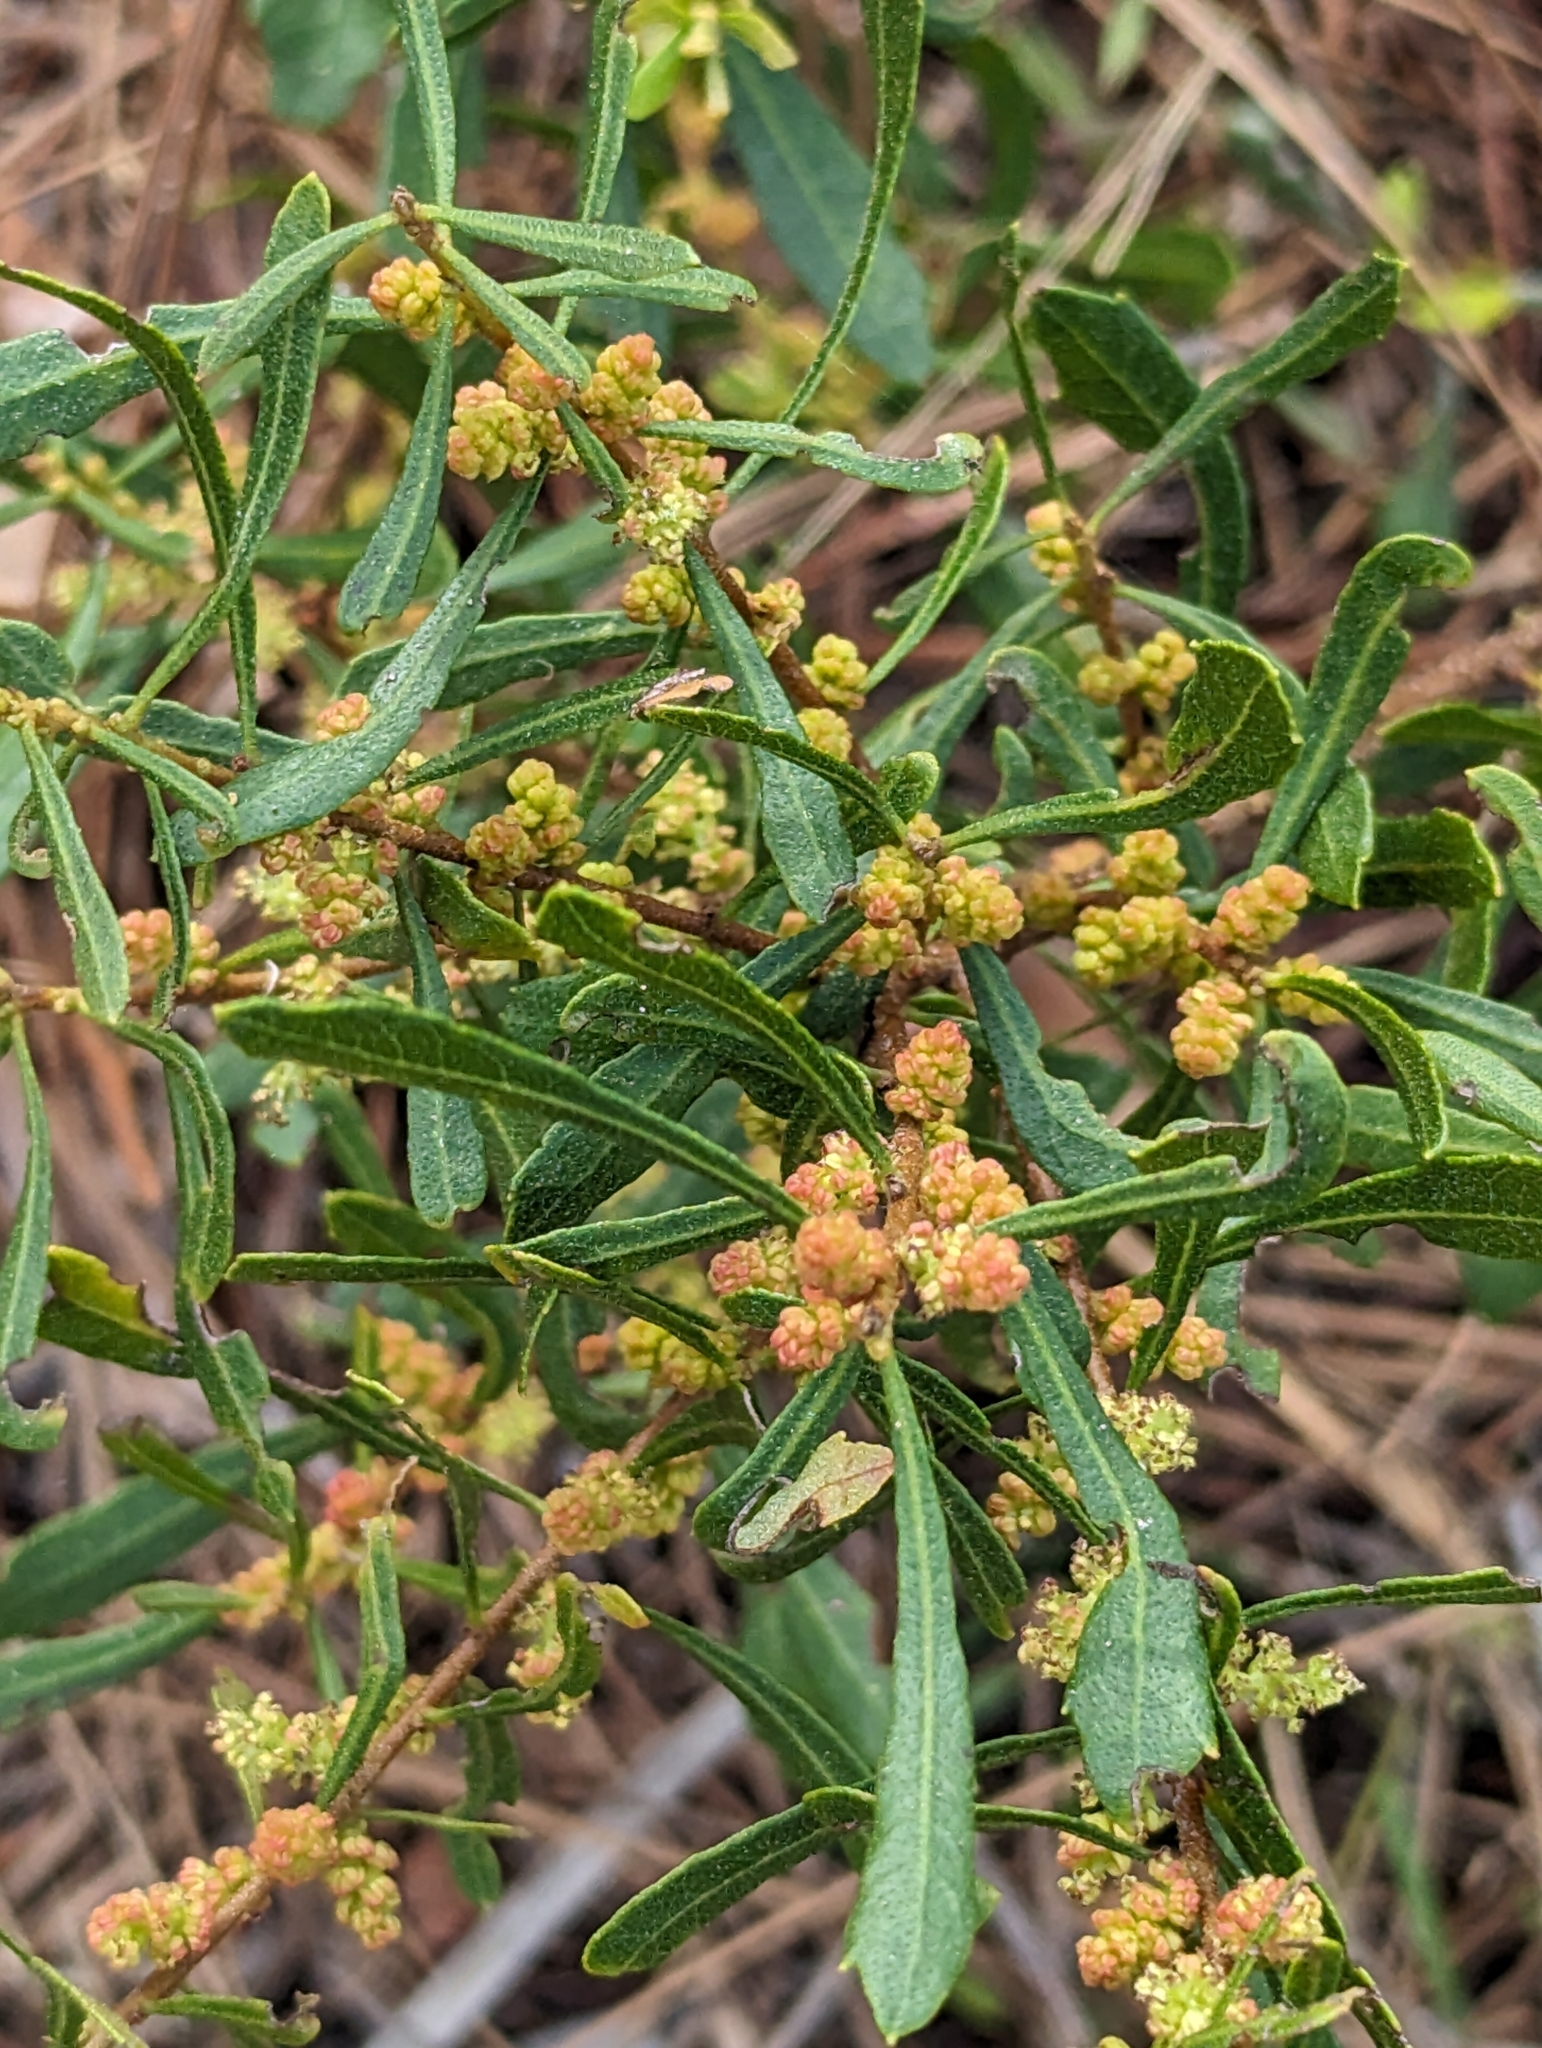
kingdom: Plantae
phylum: Tracheophyta
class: Magnoliopsida
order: Fagales
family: Myricaceae
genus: Morella
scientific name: Morella cerifera
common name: Wax myrtle
